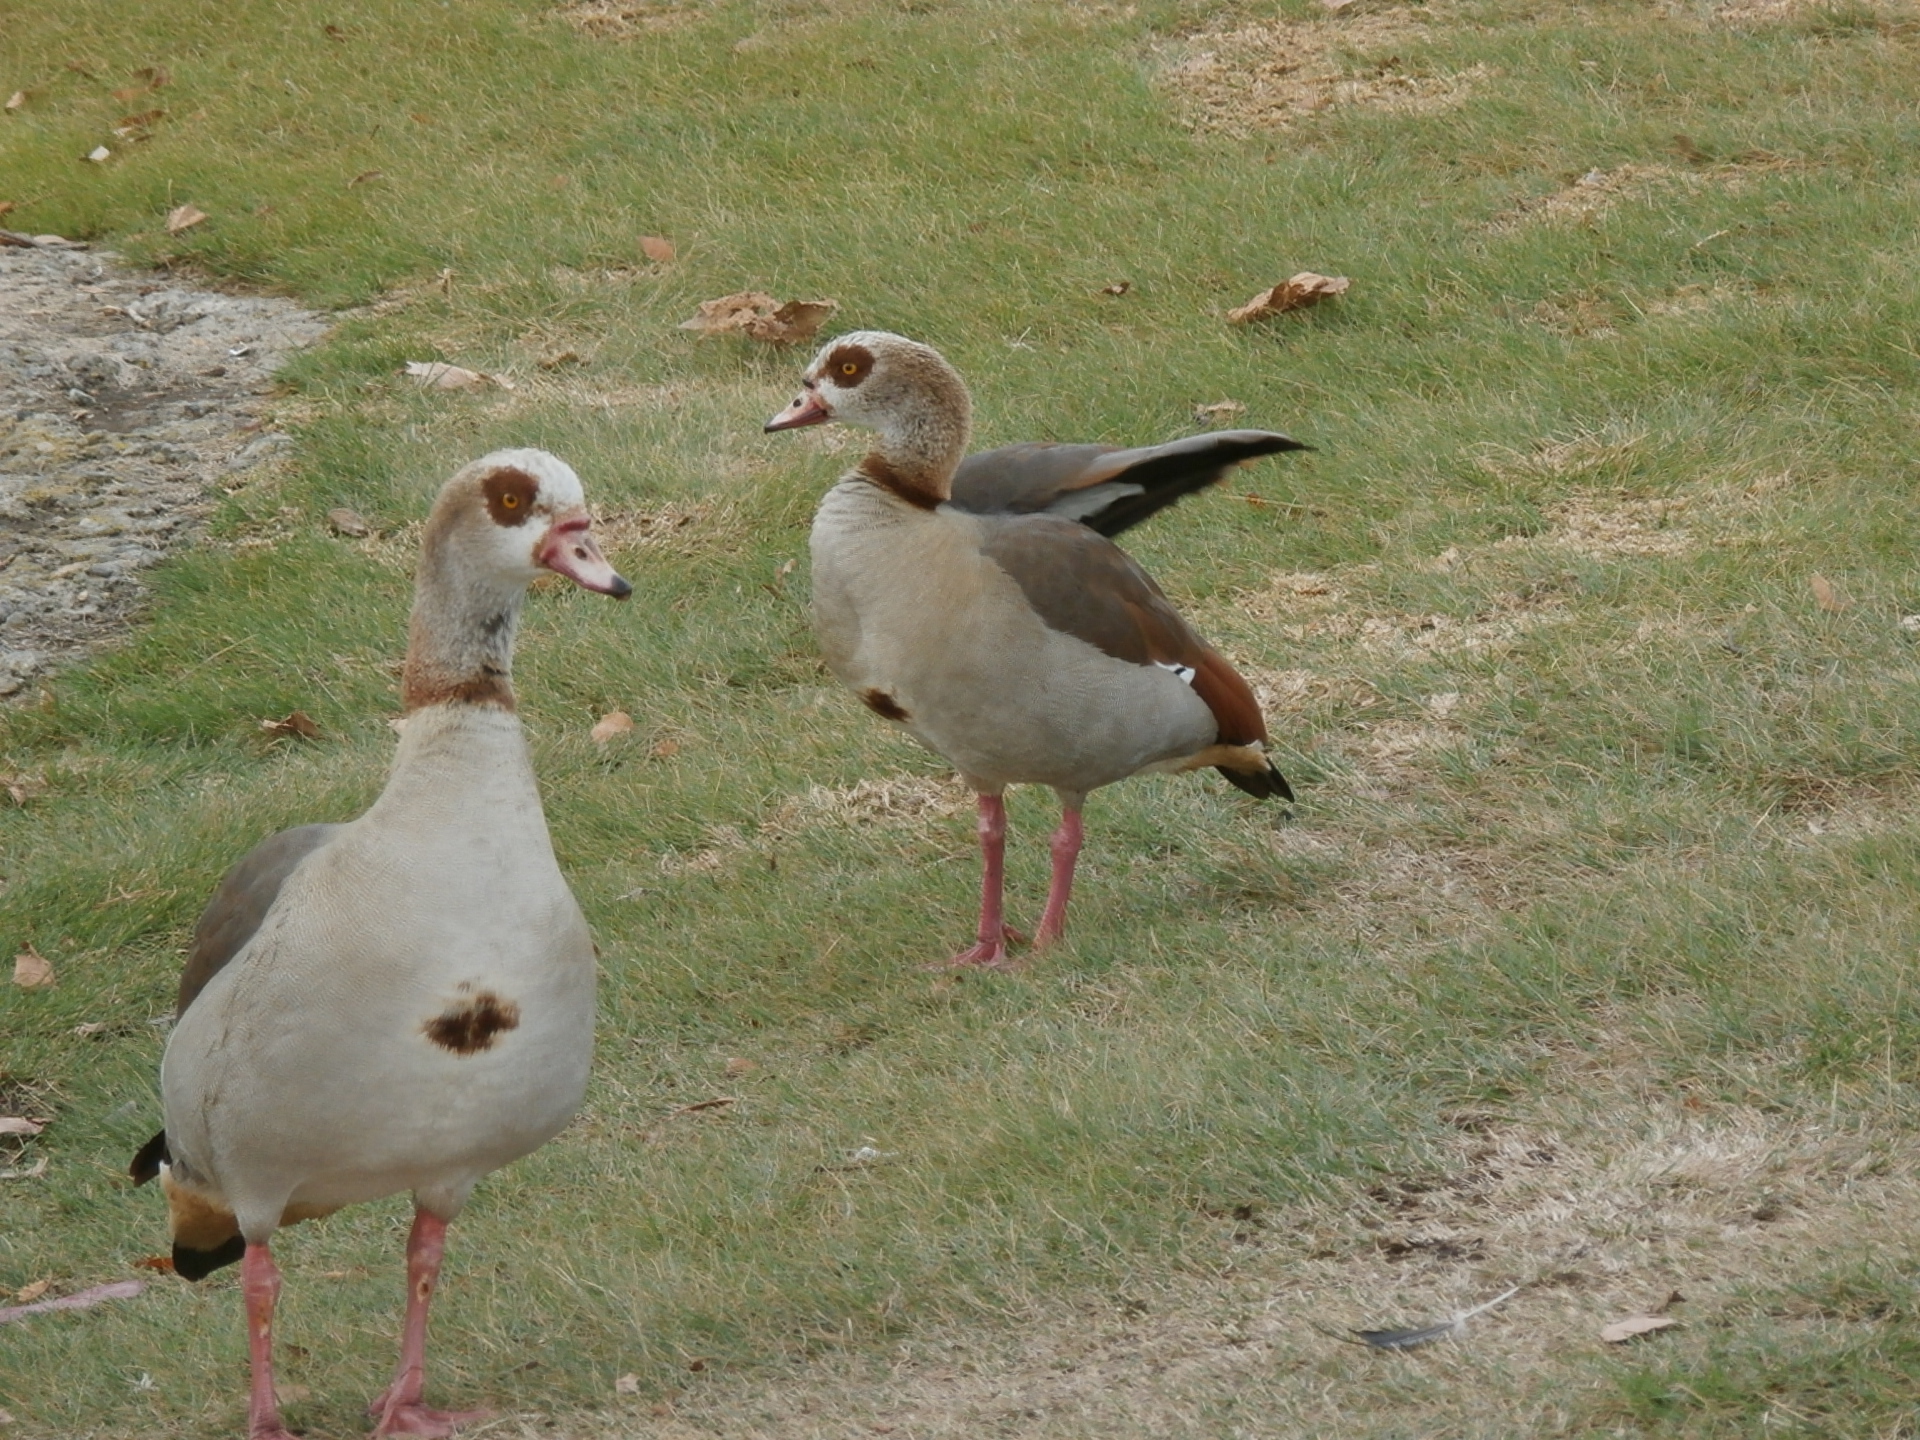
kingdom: Animalia
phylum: Chordata
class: Aves
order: Anseriformes
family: Anatidae
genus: Alopochen
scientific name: Alopochen aegyptiaca
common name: Egyptian goose
